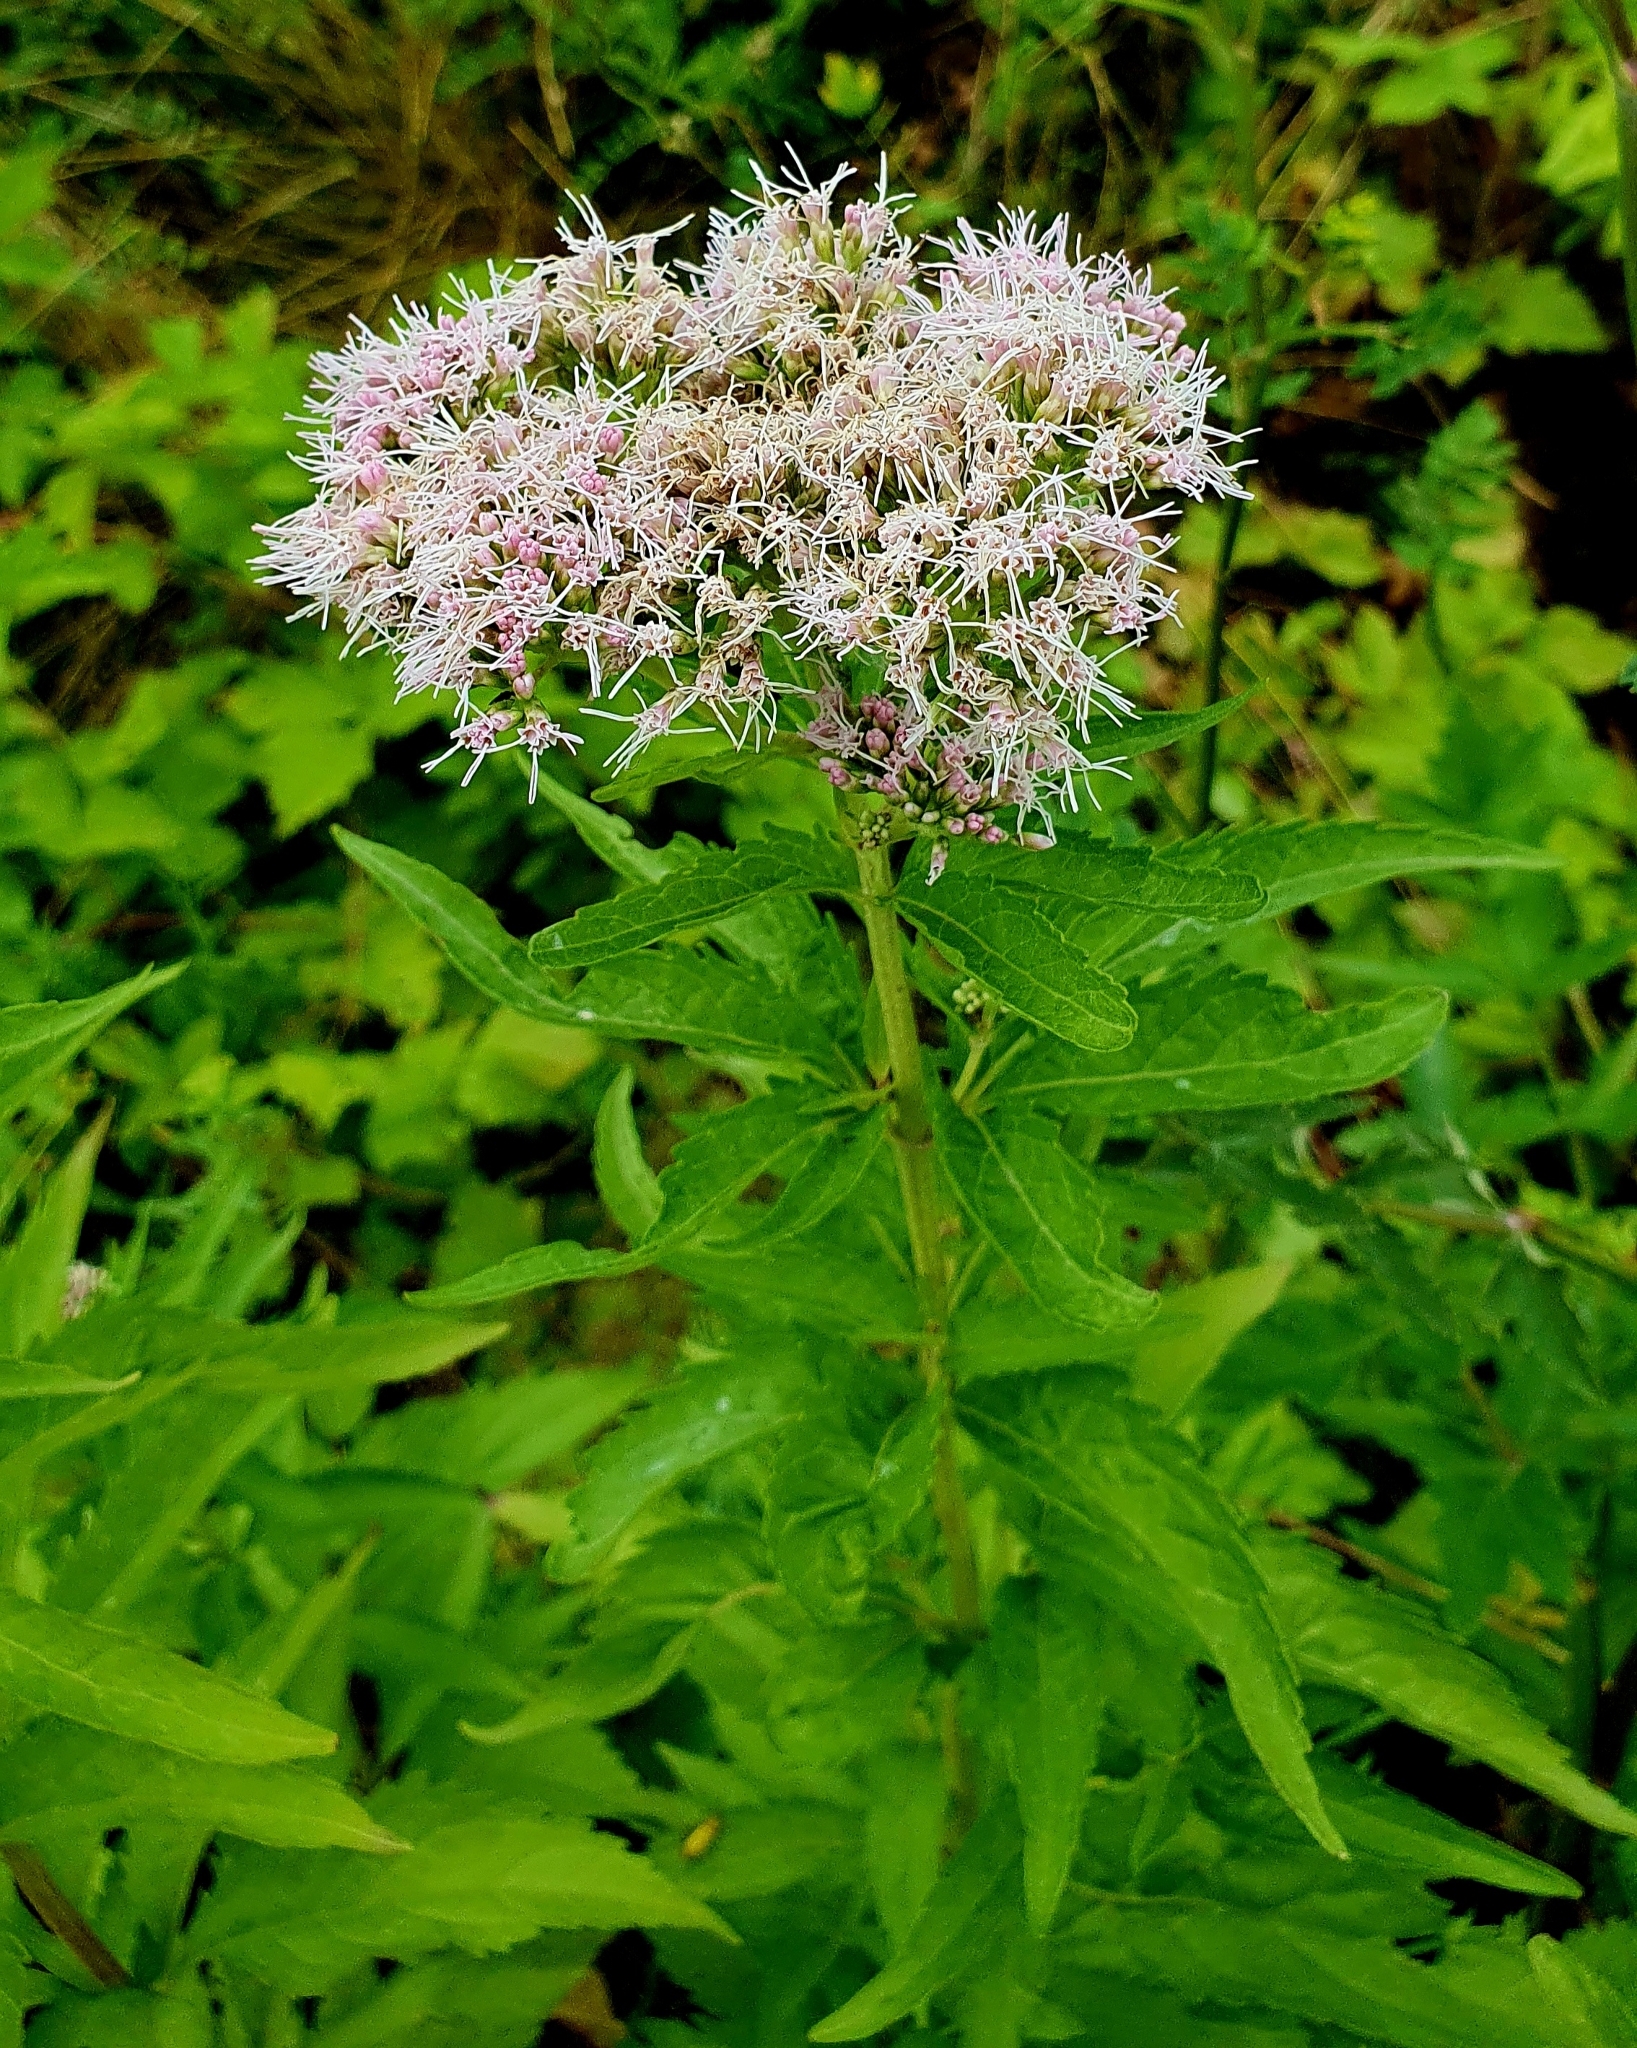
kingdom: Plantae
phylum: Tracheophyta
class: Magnoliopsida
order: Asterales
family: Asteraceae
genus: Eupatorium
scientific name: Eupatorium cannabinum
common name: Hemp-agrimony
